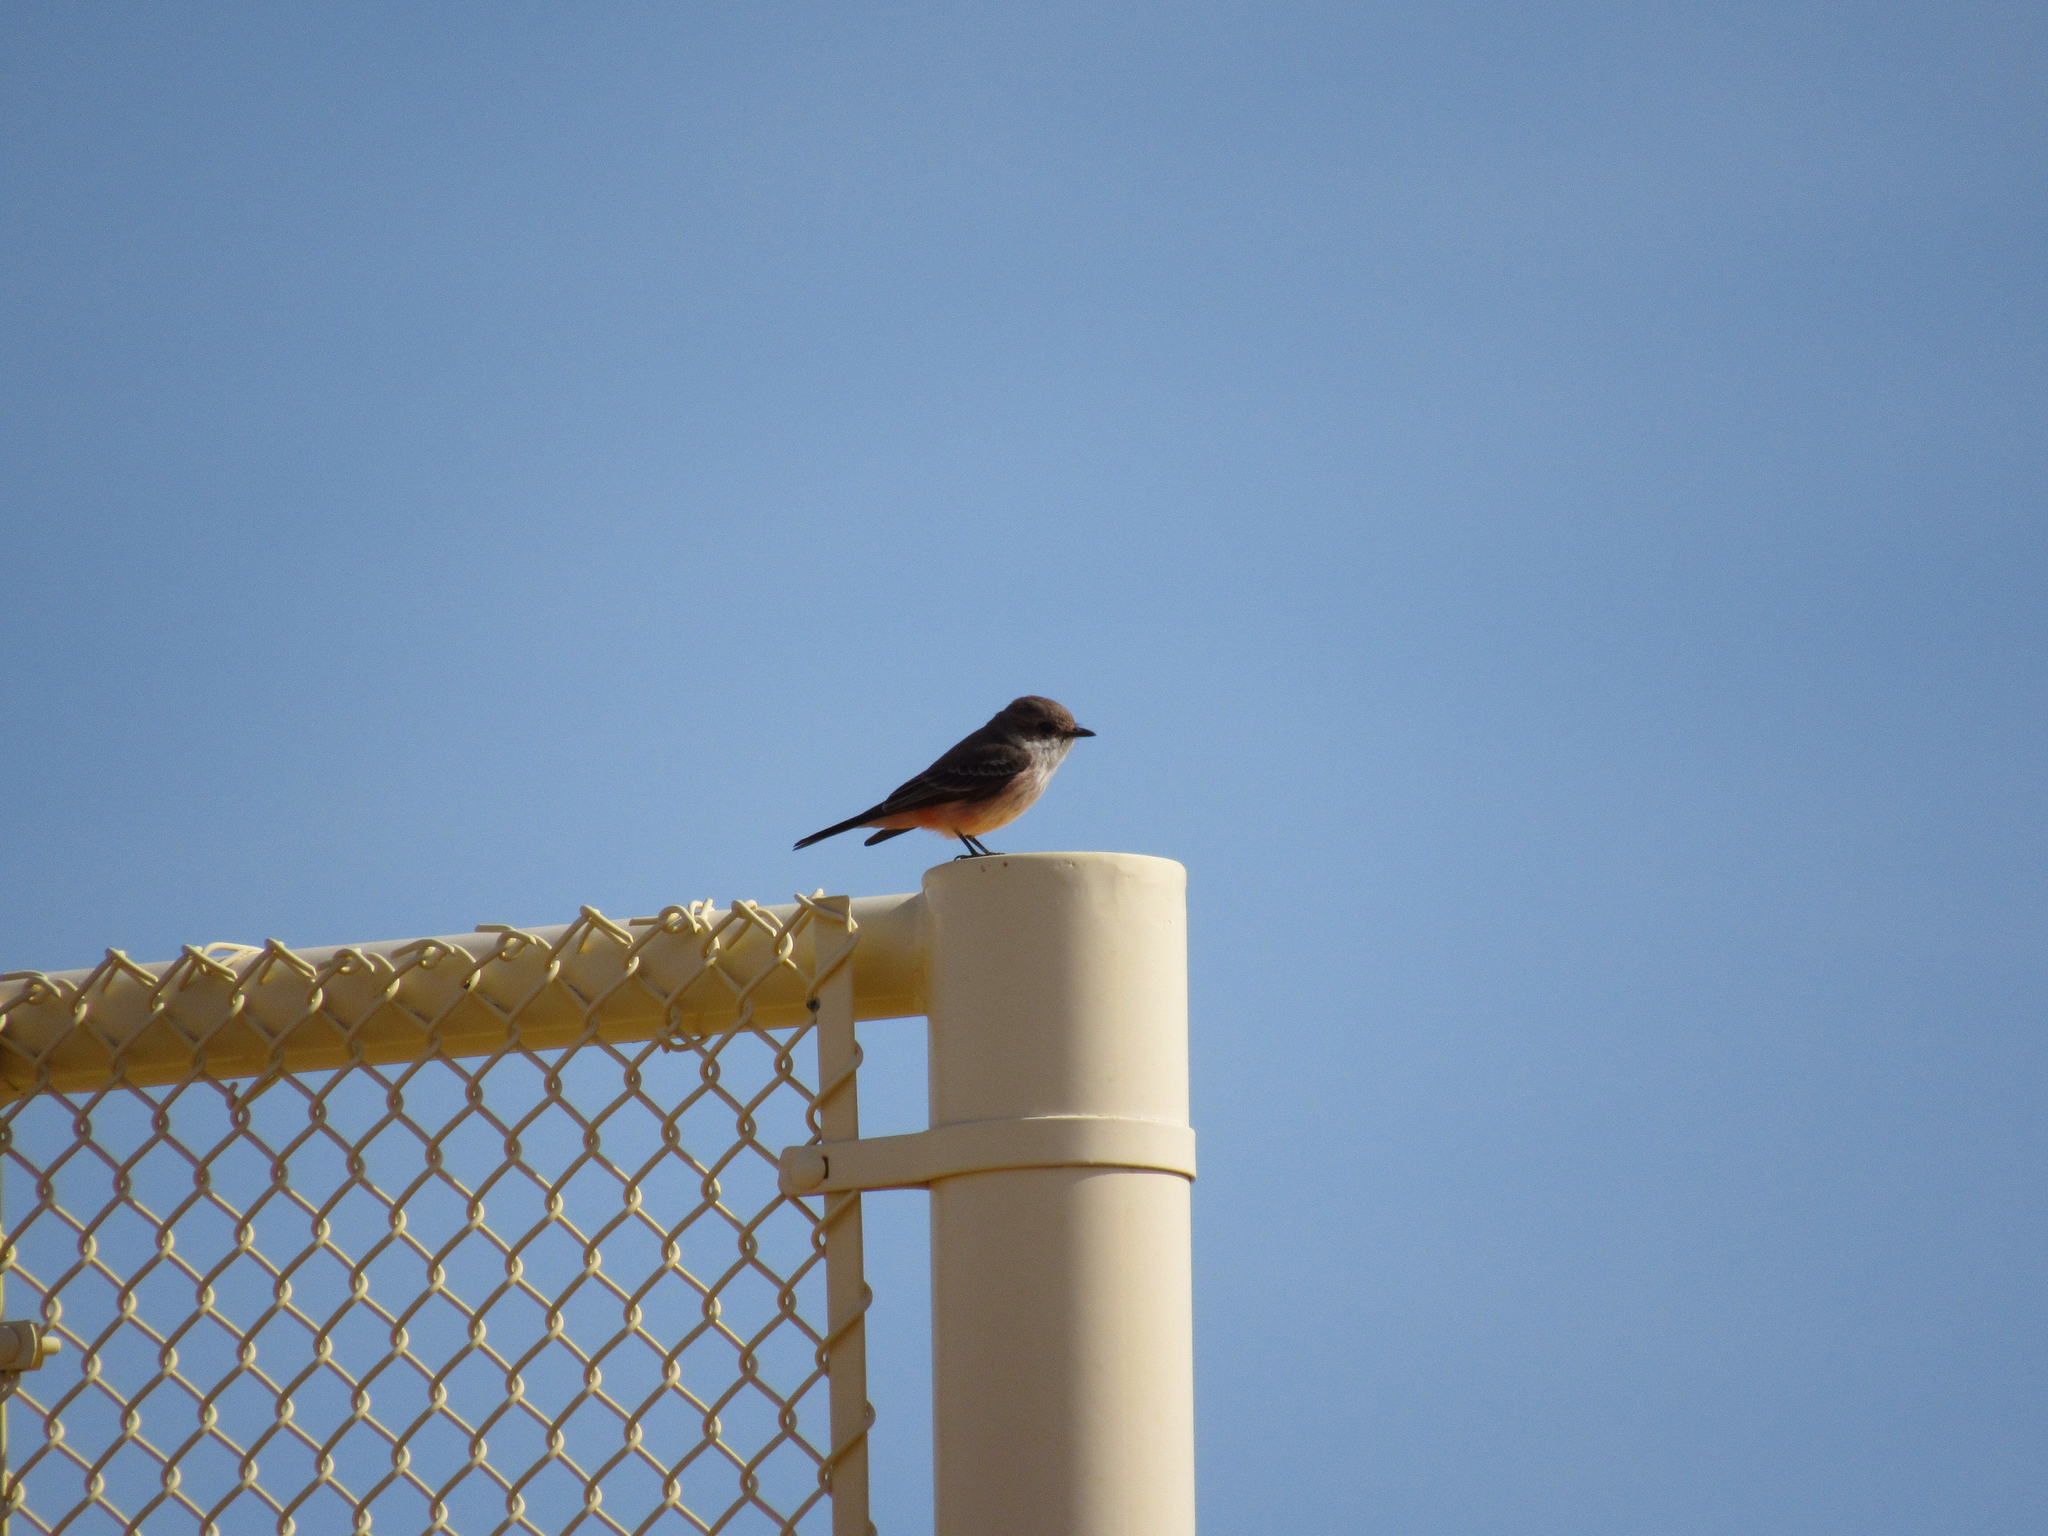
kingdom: Animalia
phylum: Chordata
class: Aves
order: Passeriformes
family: Tyrannidae
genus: Pyrocephalus
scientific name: Pyrocephalus rubinus
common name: Vermilion flycatcher
